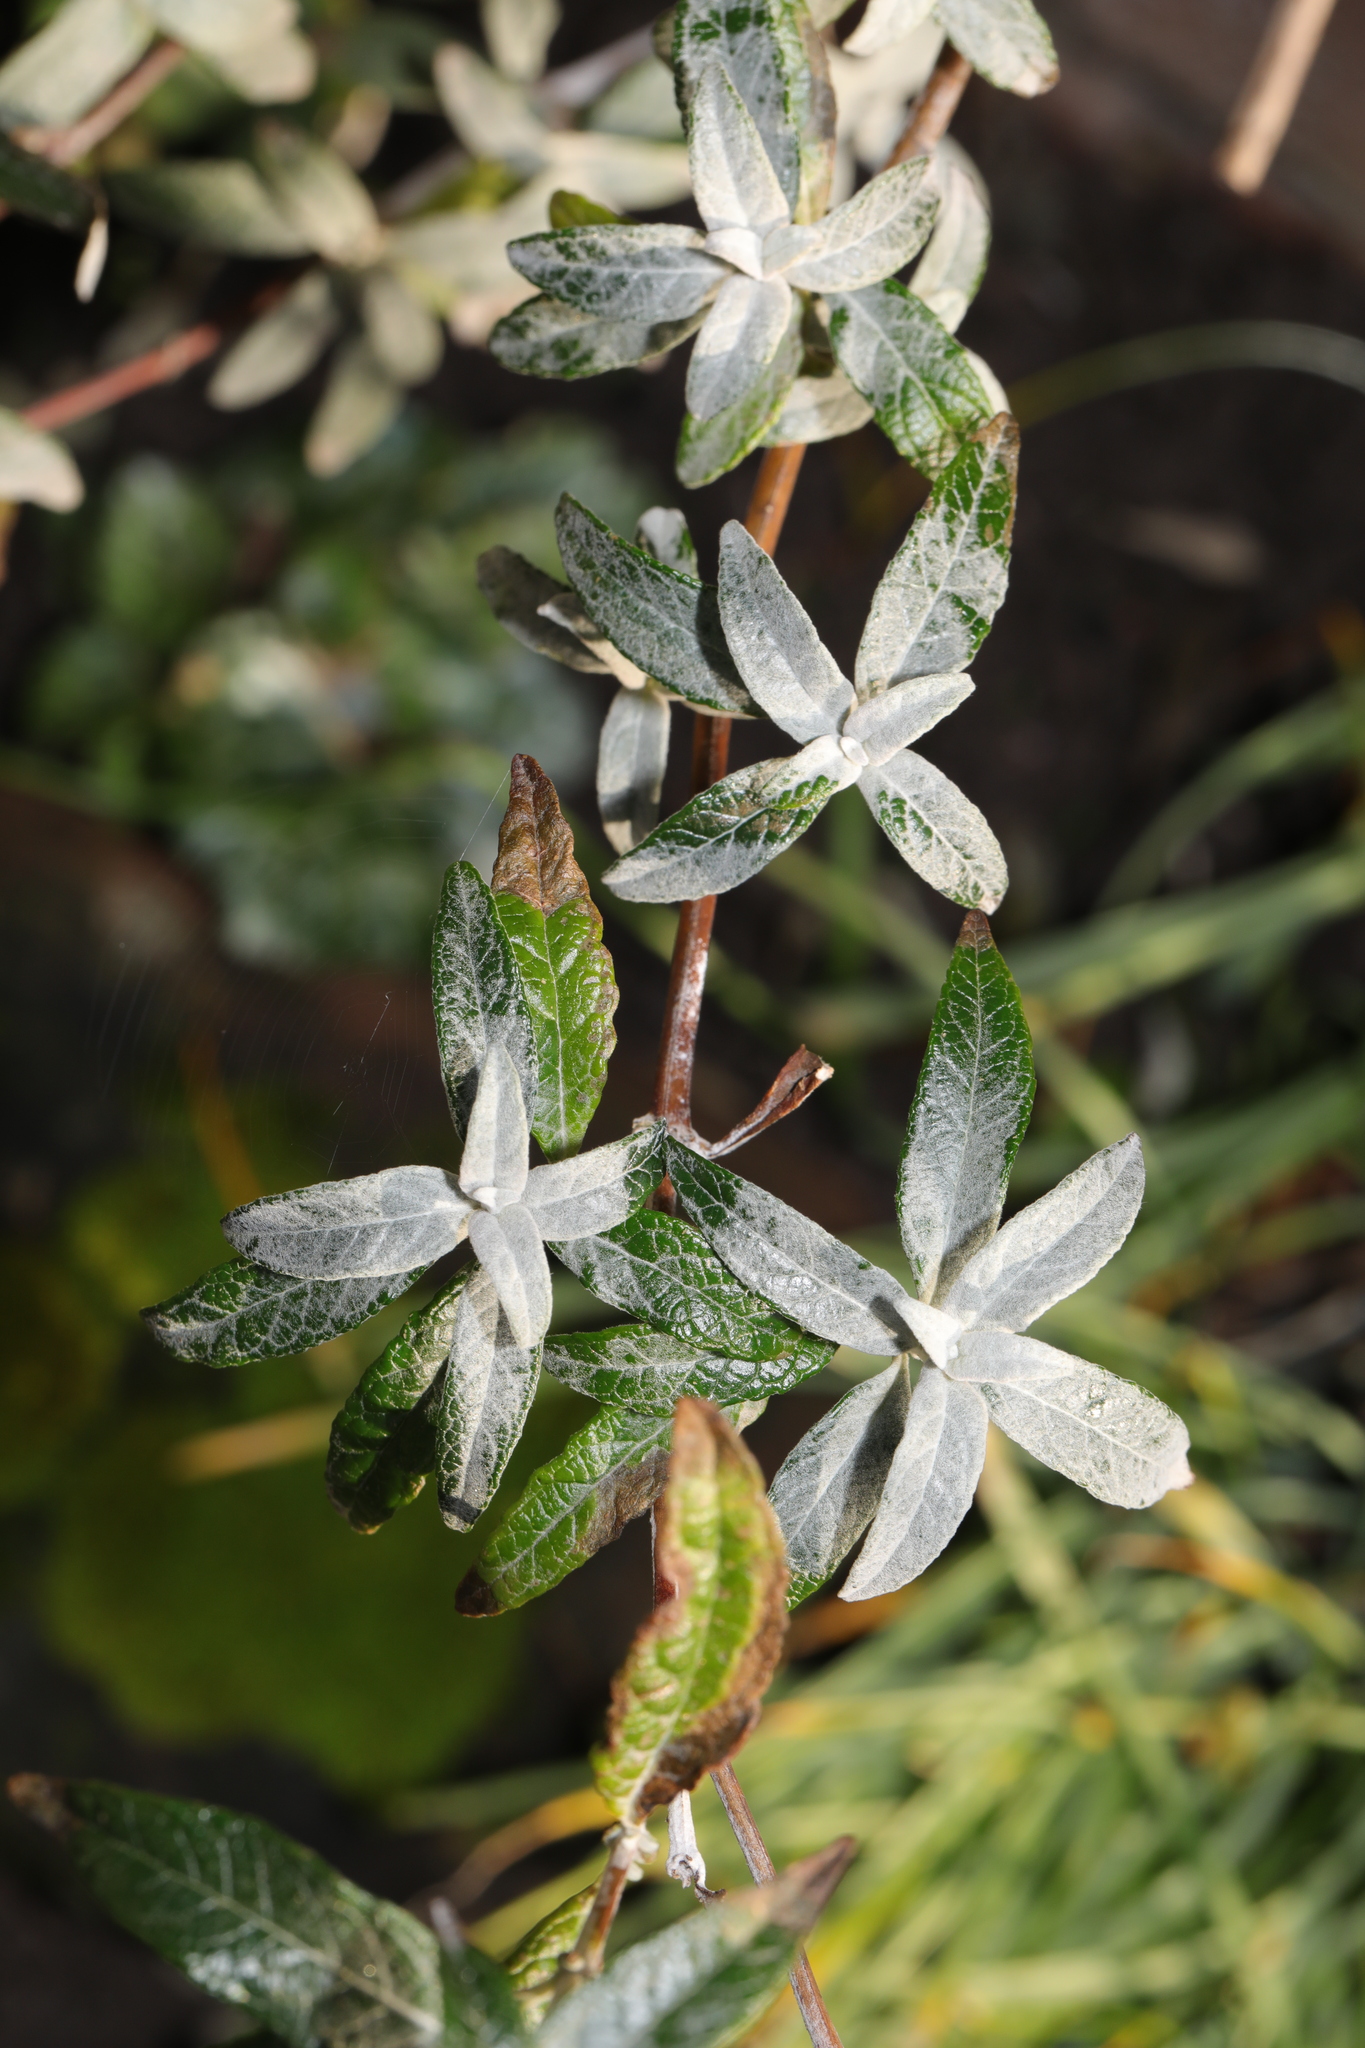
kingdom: Plantae
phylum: Tracheophyta
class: Magnoliopsida
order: Lamiales
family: Scrophulariaceae
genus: Buddleja
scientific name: Buddleja davidii
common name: Butterfly-bush
